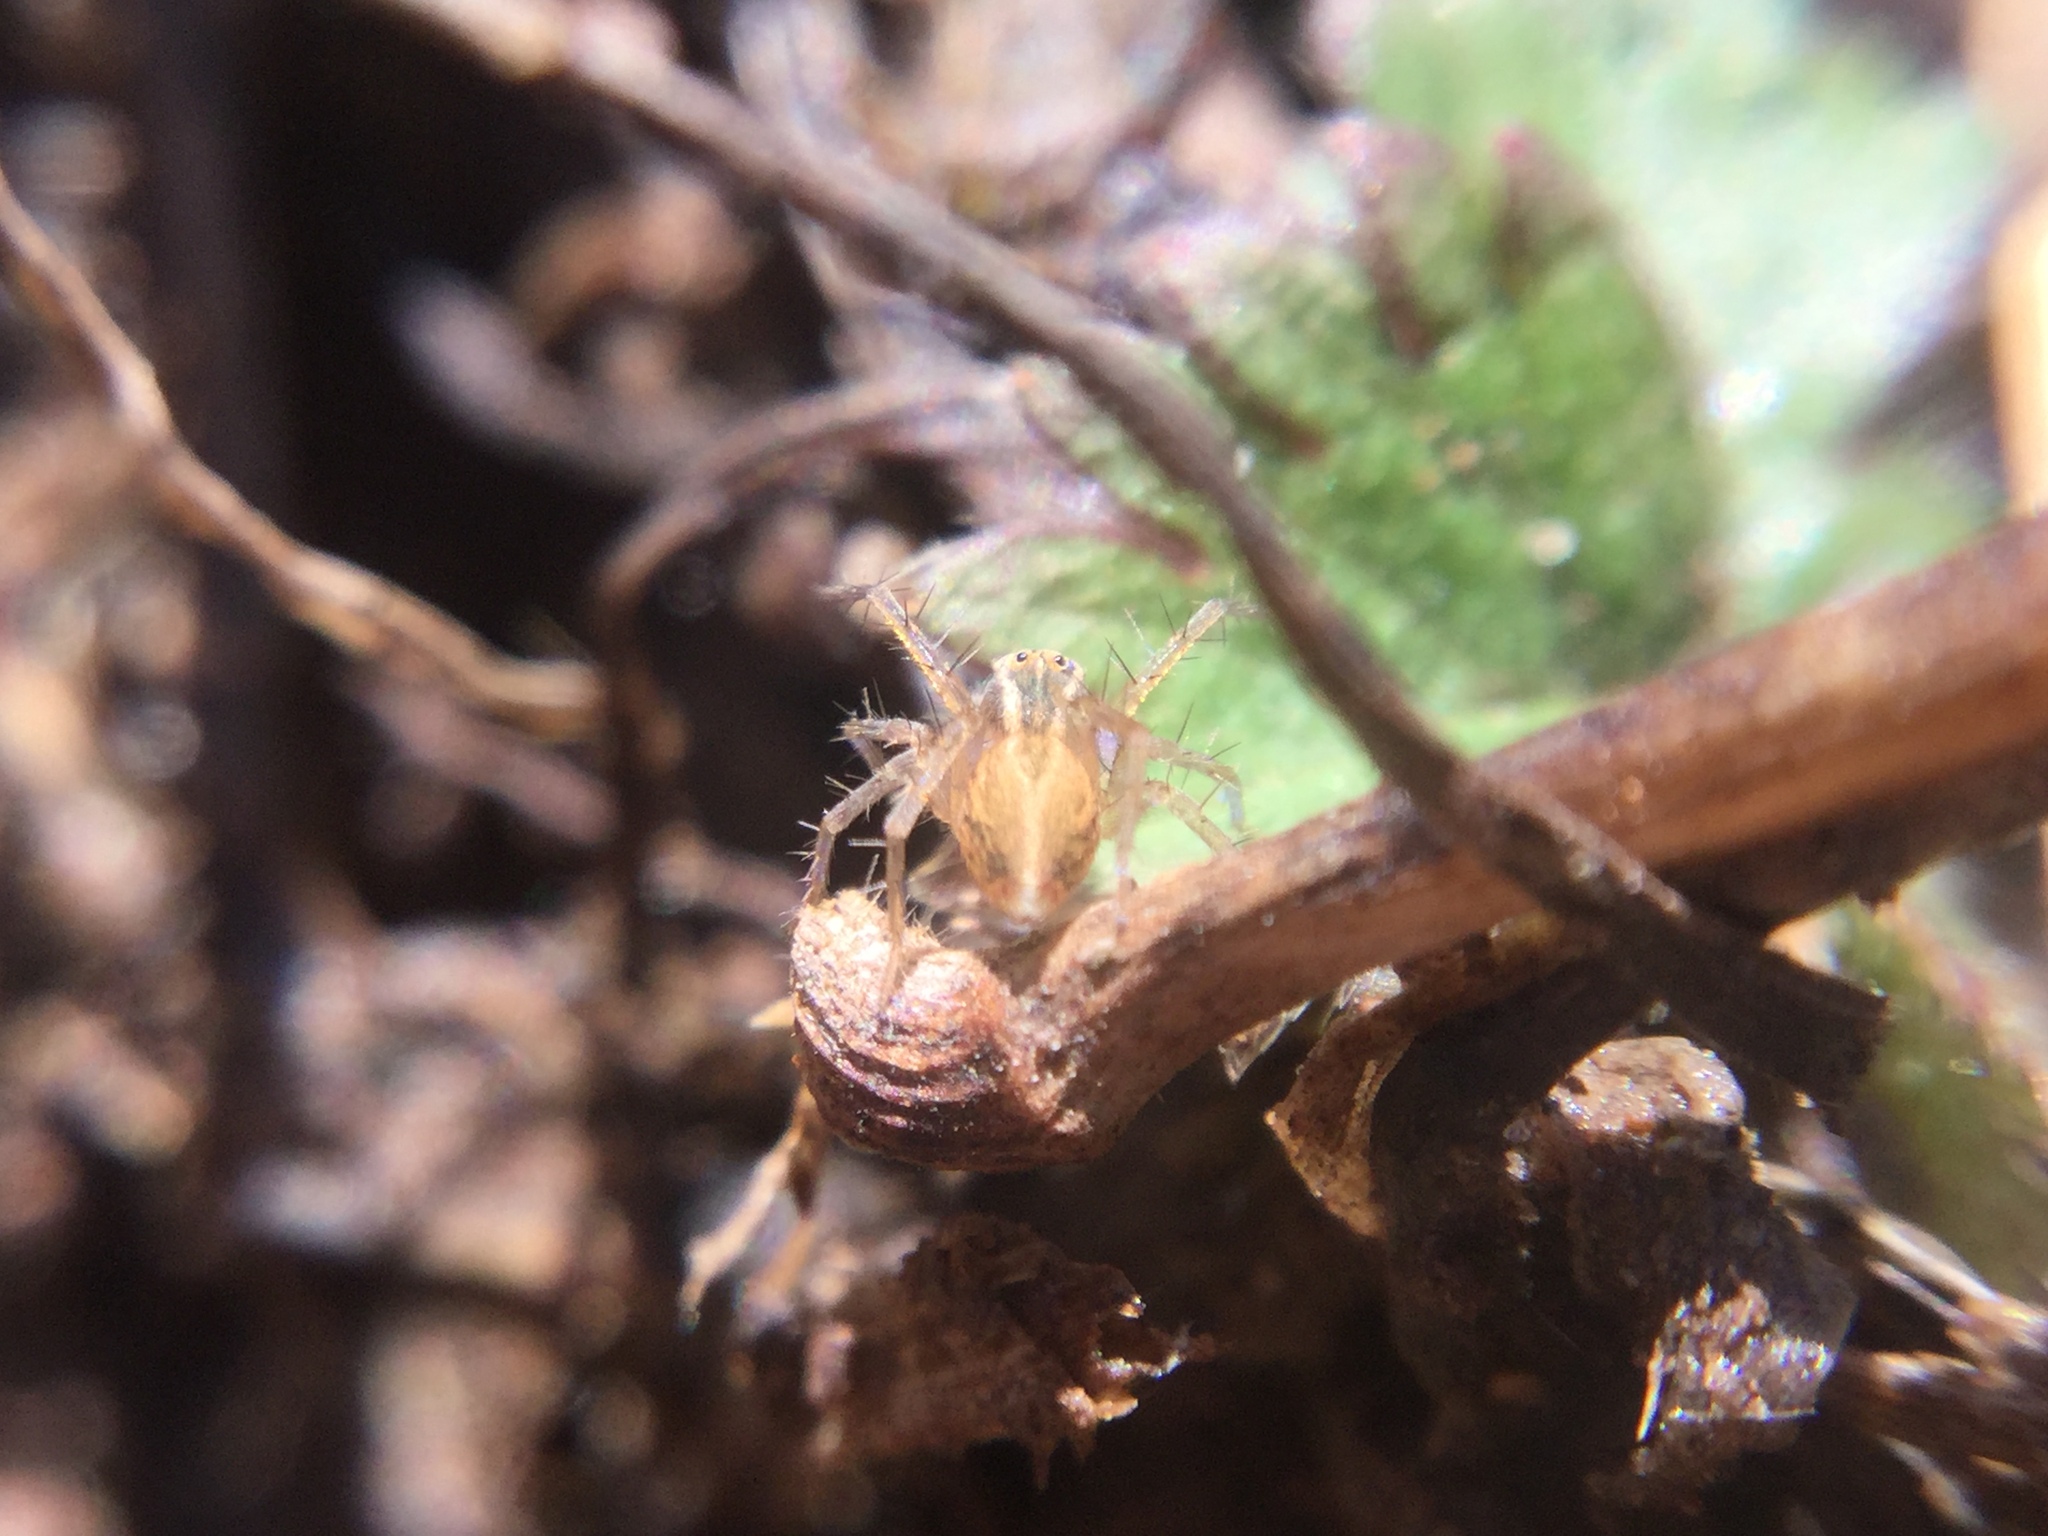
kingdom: Animalia
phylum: Arthropoda
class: Arachnida
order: Araneae
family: Oxyopidae
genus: Oxyopes
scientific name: Oxyopes salticus
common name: Lynx spiders
